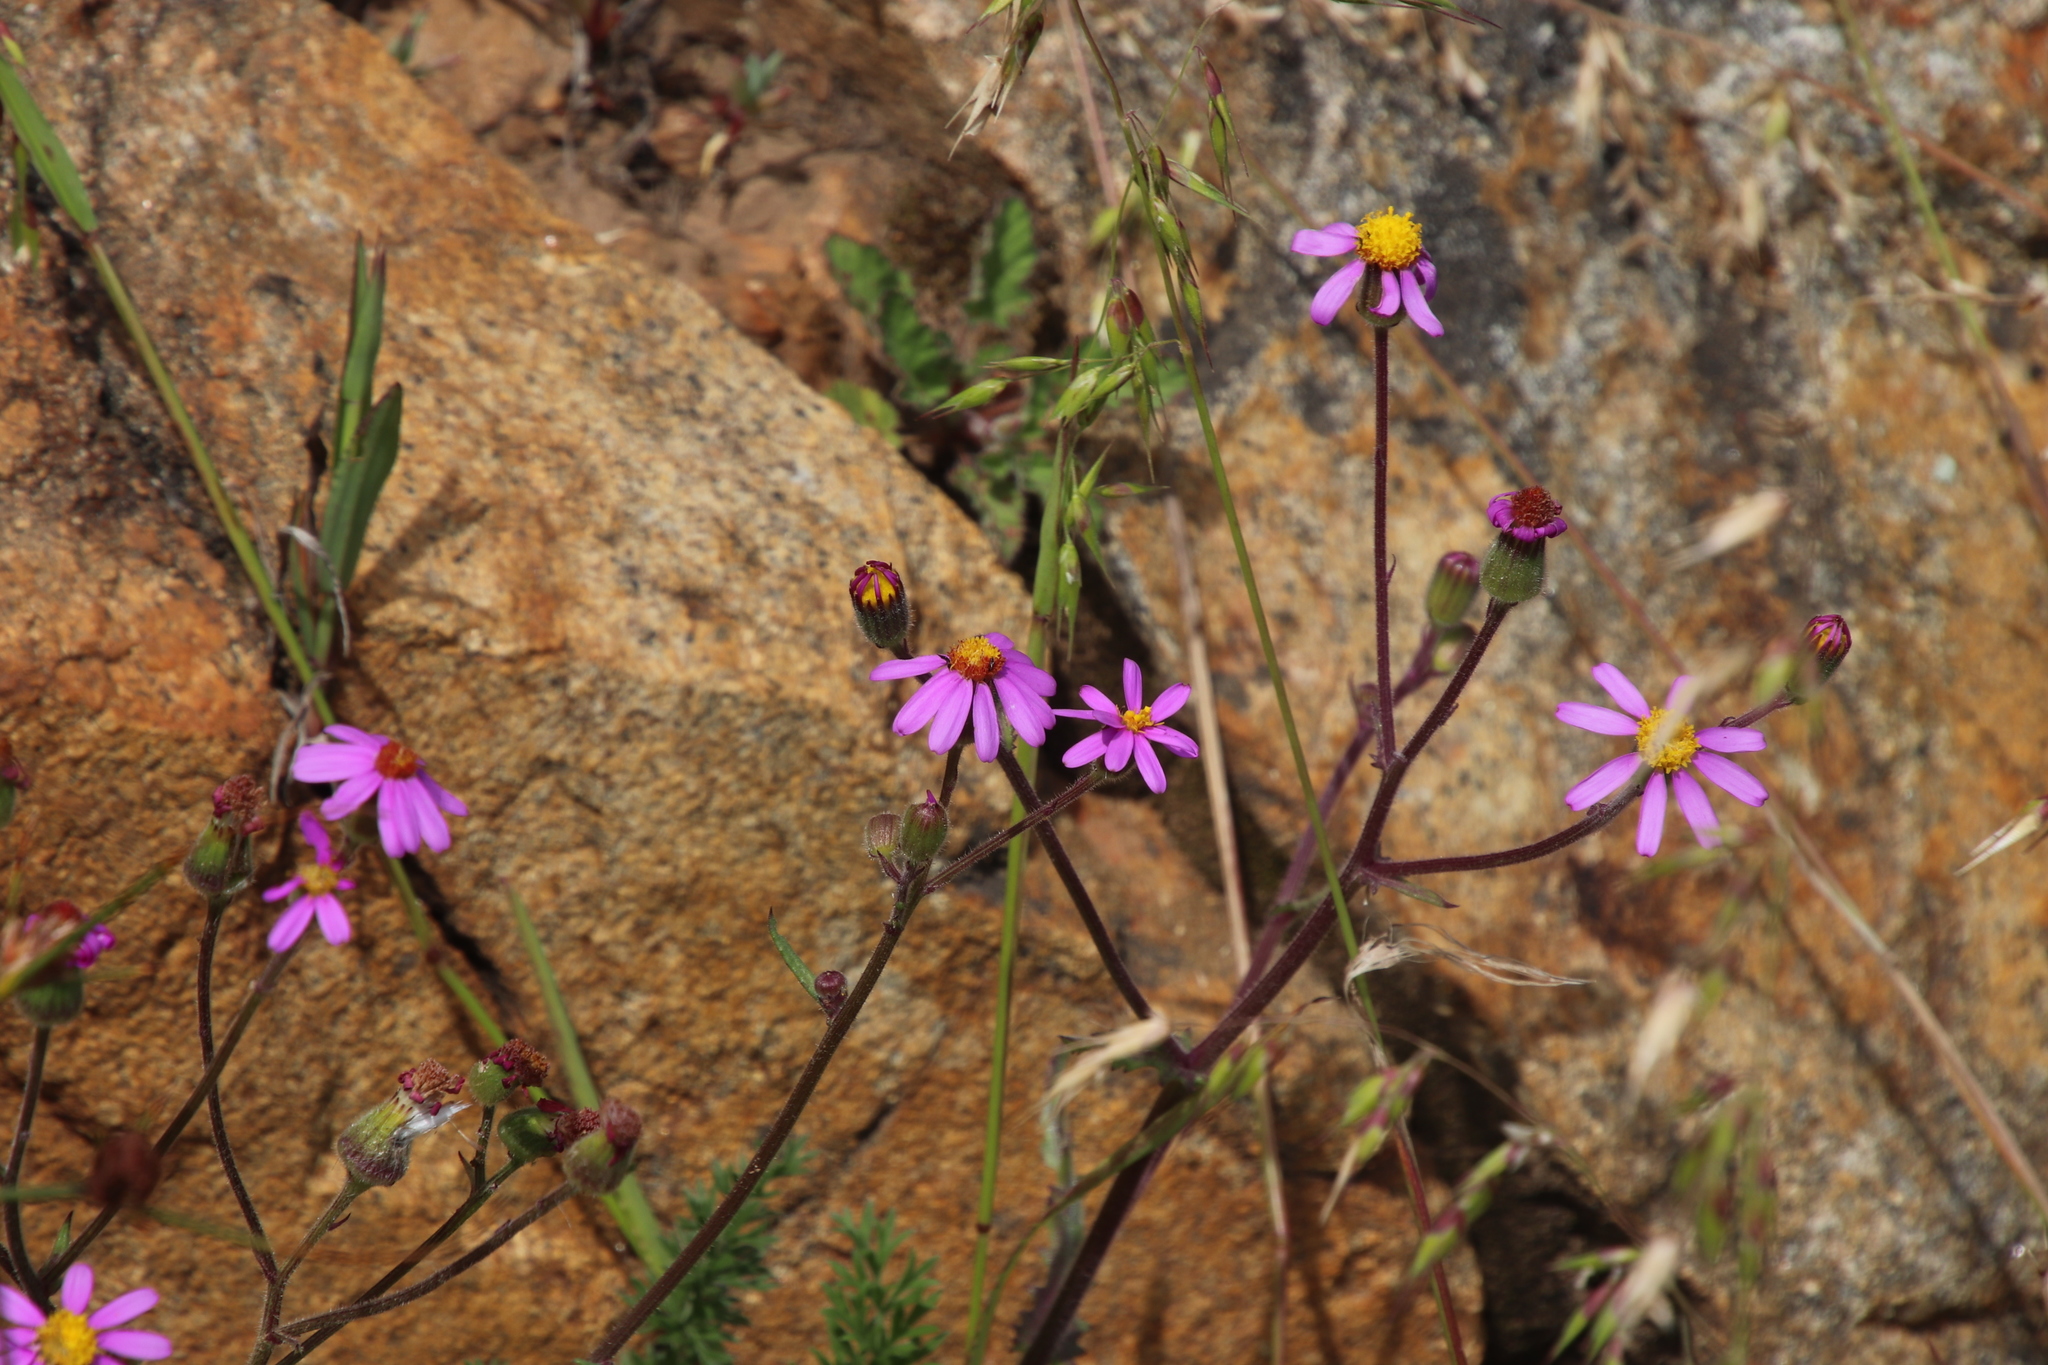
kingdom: Plantae
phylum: Tracheophyta
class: Magnoliopsida
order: Asterales
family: Asteraceae
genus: Senecio
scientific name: Senecio arenarius
